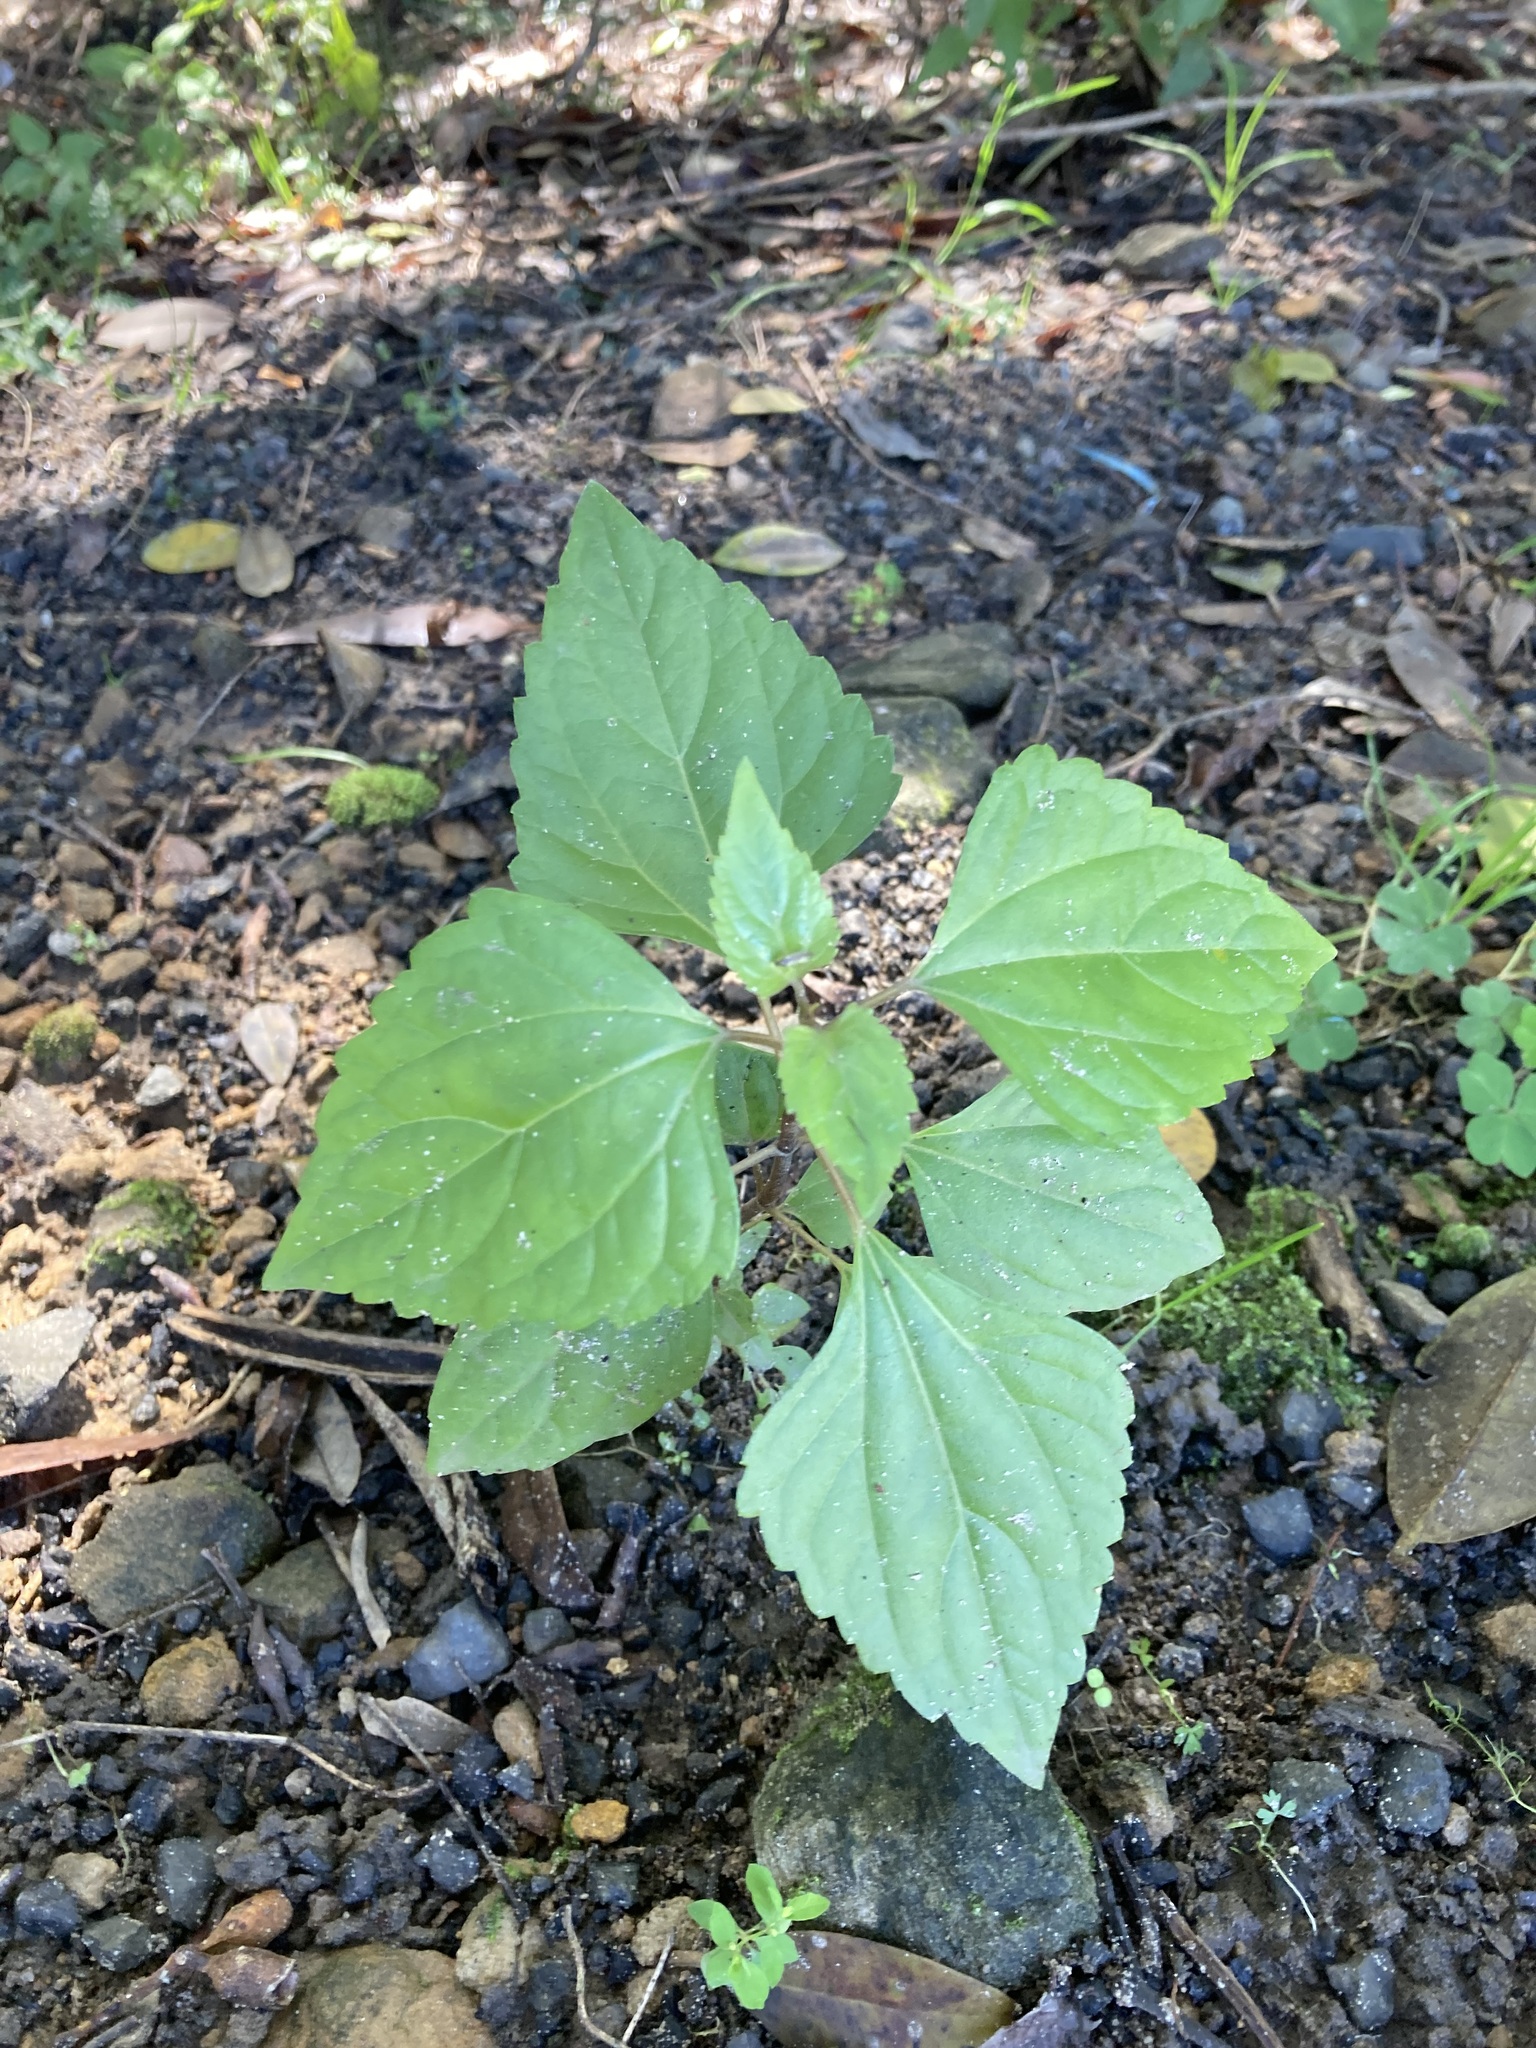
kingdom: Plantae
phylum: Tracheophyta
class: Magnoliopsida
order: Asterales
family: Asteraceae
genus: Ageratina
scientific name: Ageratina adenophora
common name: Sticky snakeroot
